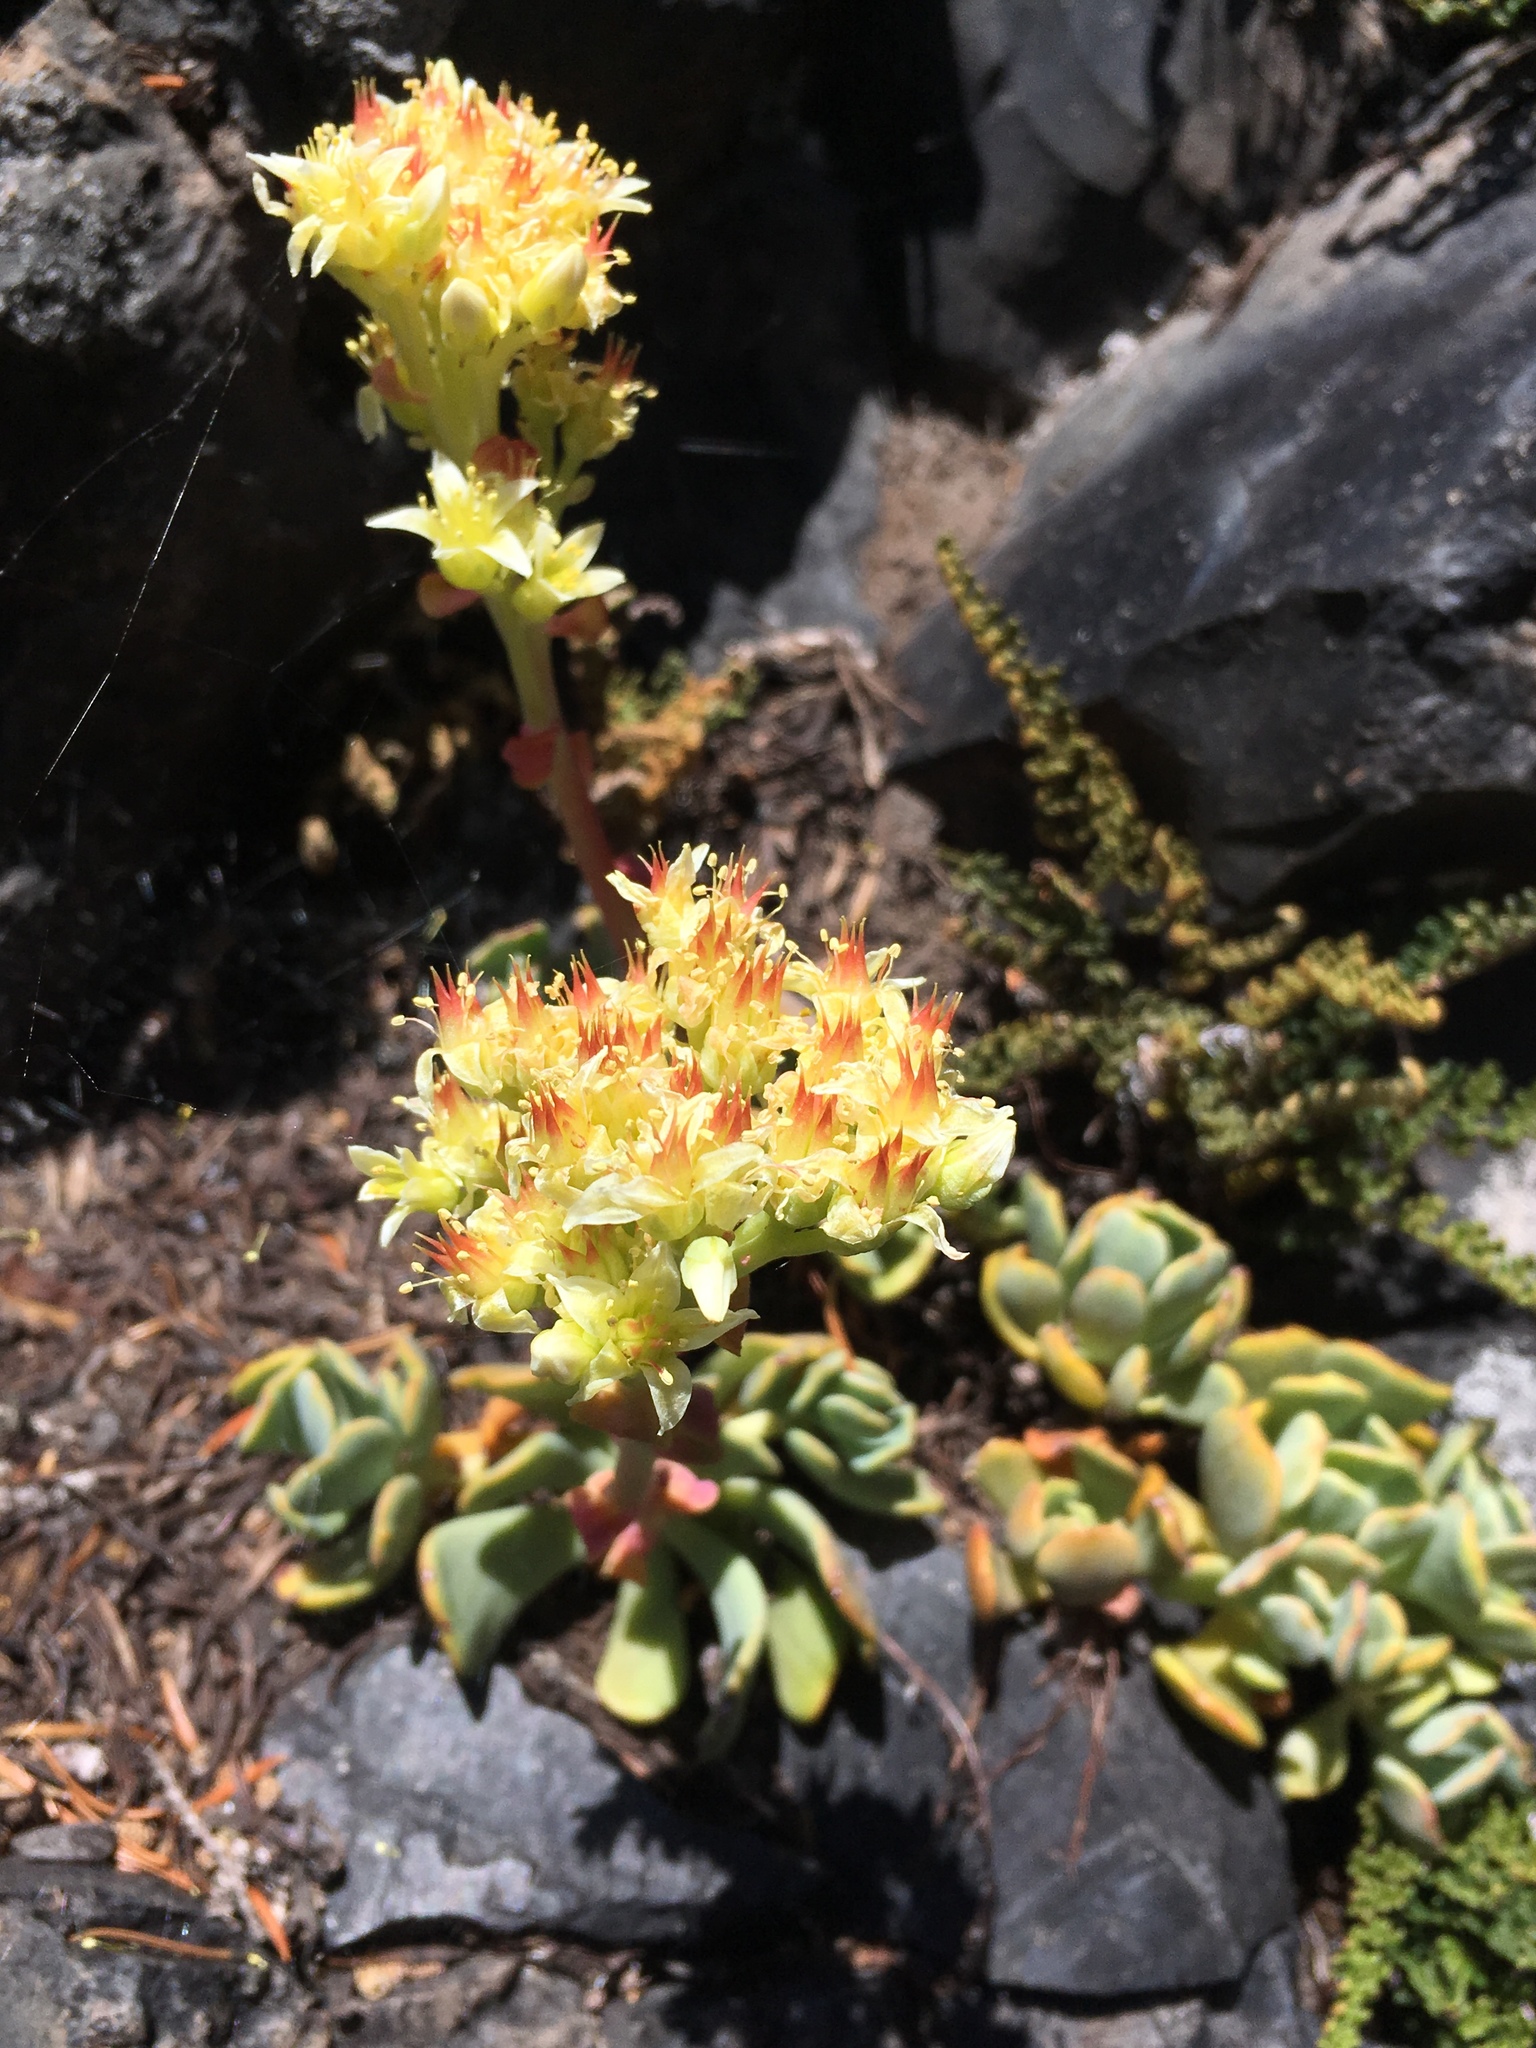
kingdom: Plantae
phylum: Tracheophyta
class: Magnoliopsida
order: Saxifragales
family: Crassulaceae
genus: Sedum
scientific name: Sedum oregonense
